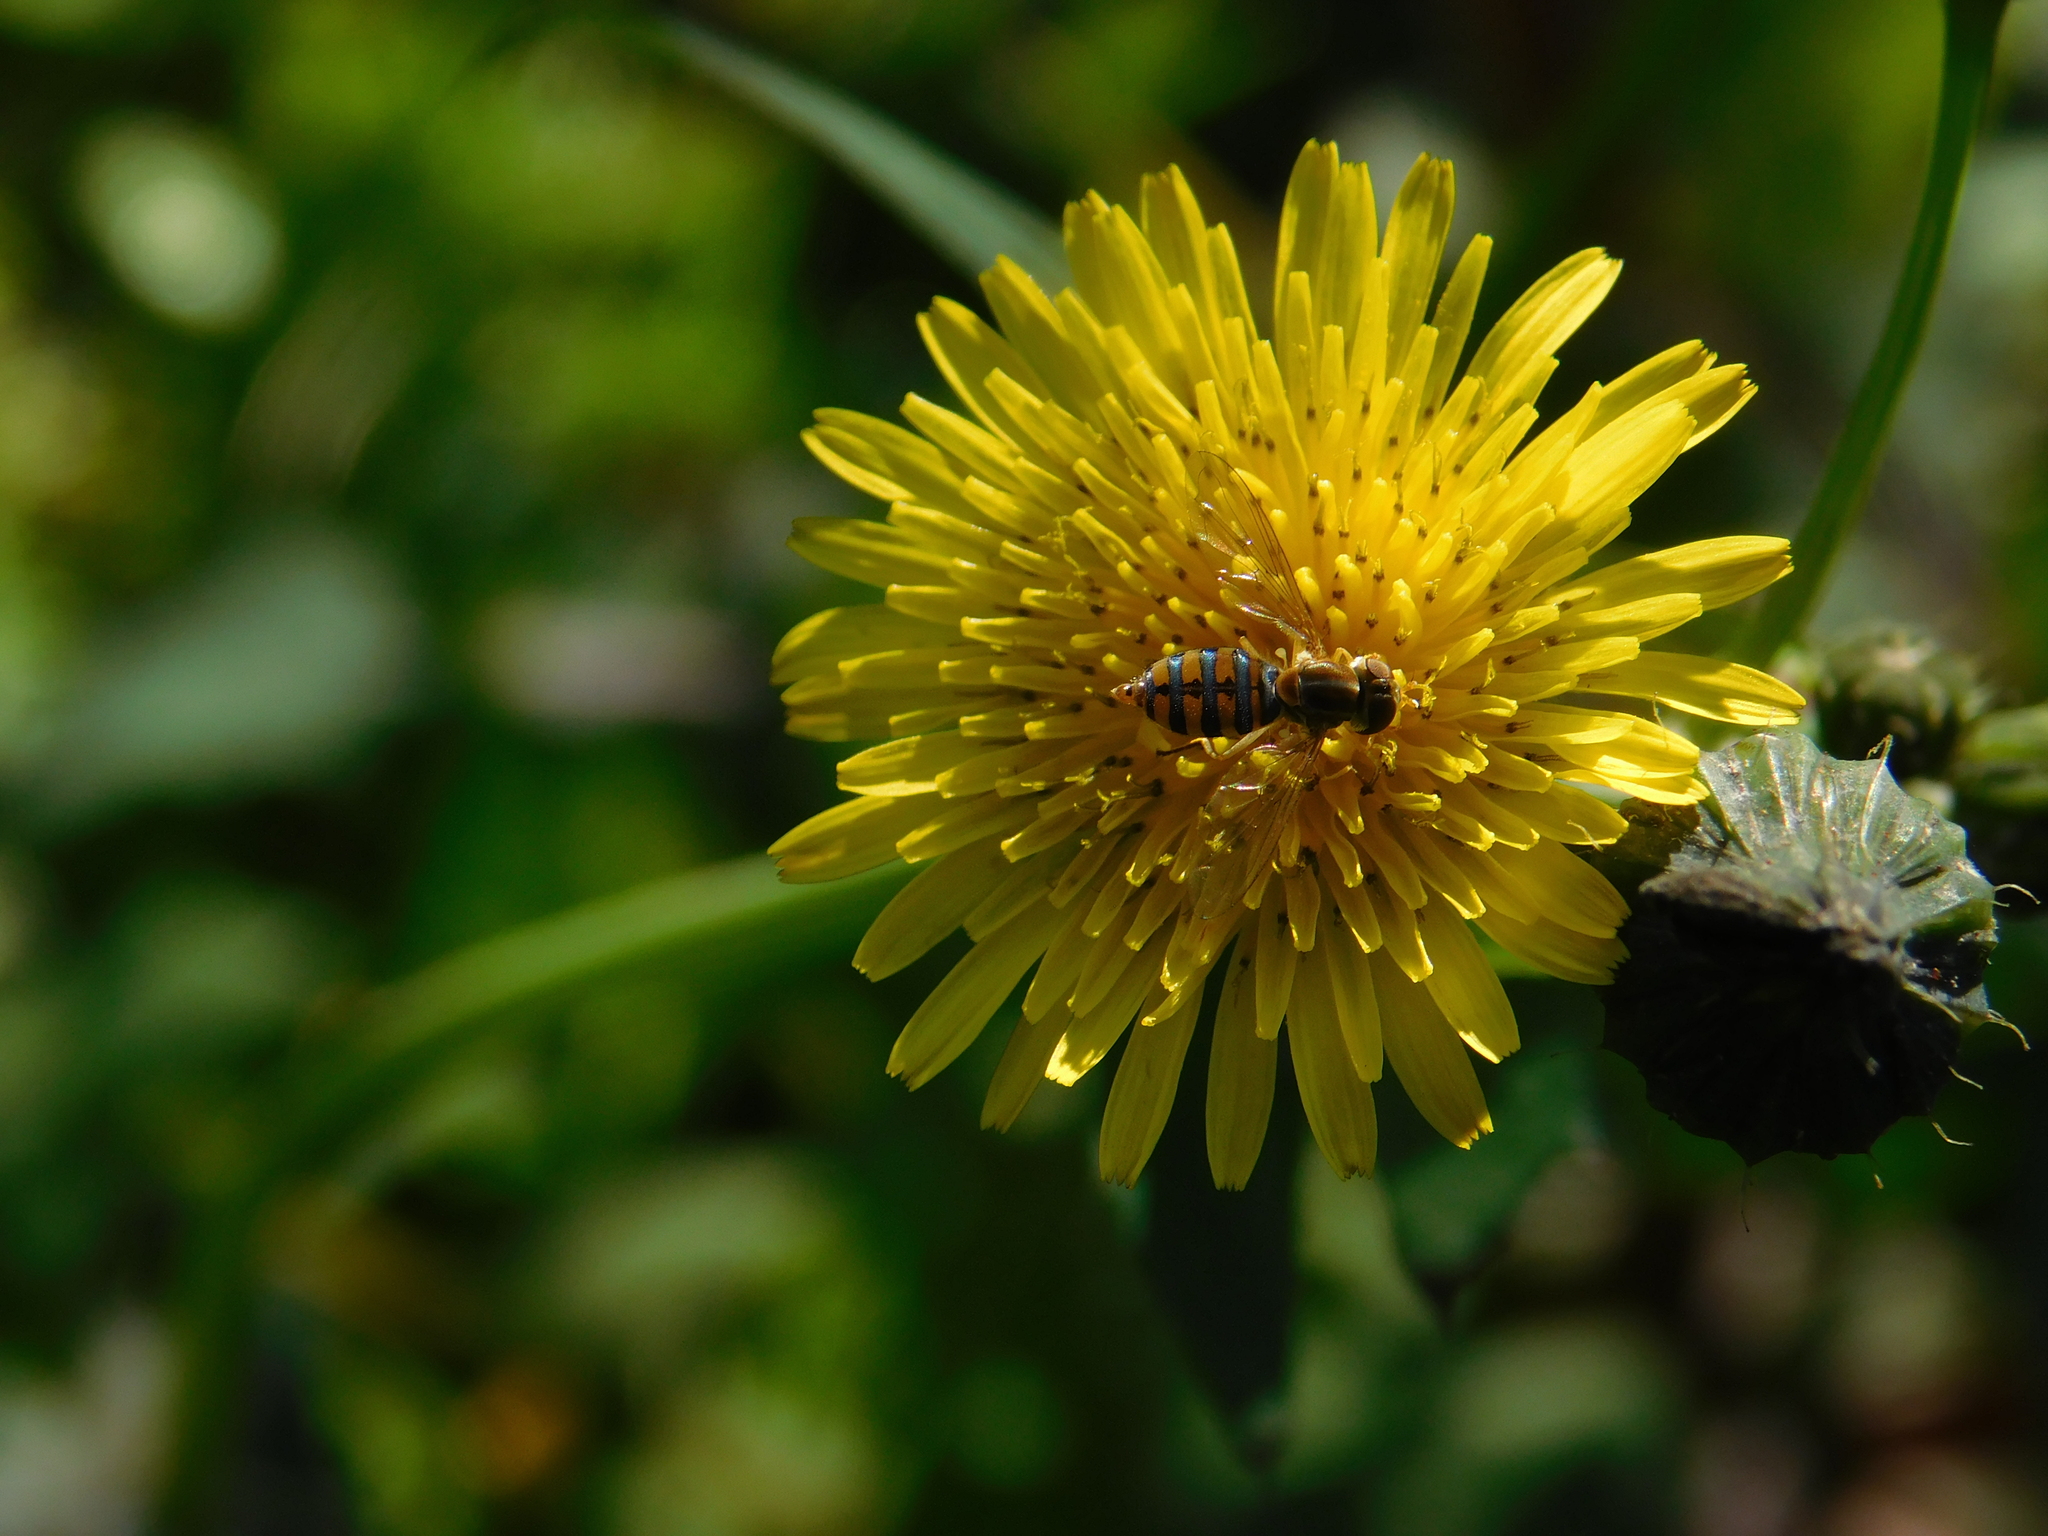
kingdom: Animalia
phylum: Arthropoda
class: Insecta
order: Diptera
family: Syrphidae
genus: Toxomerus
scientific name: Toxomerus
